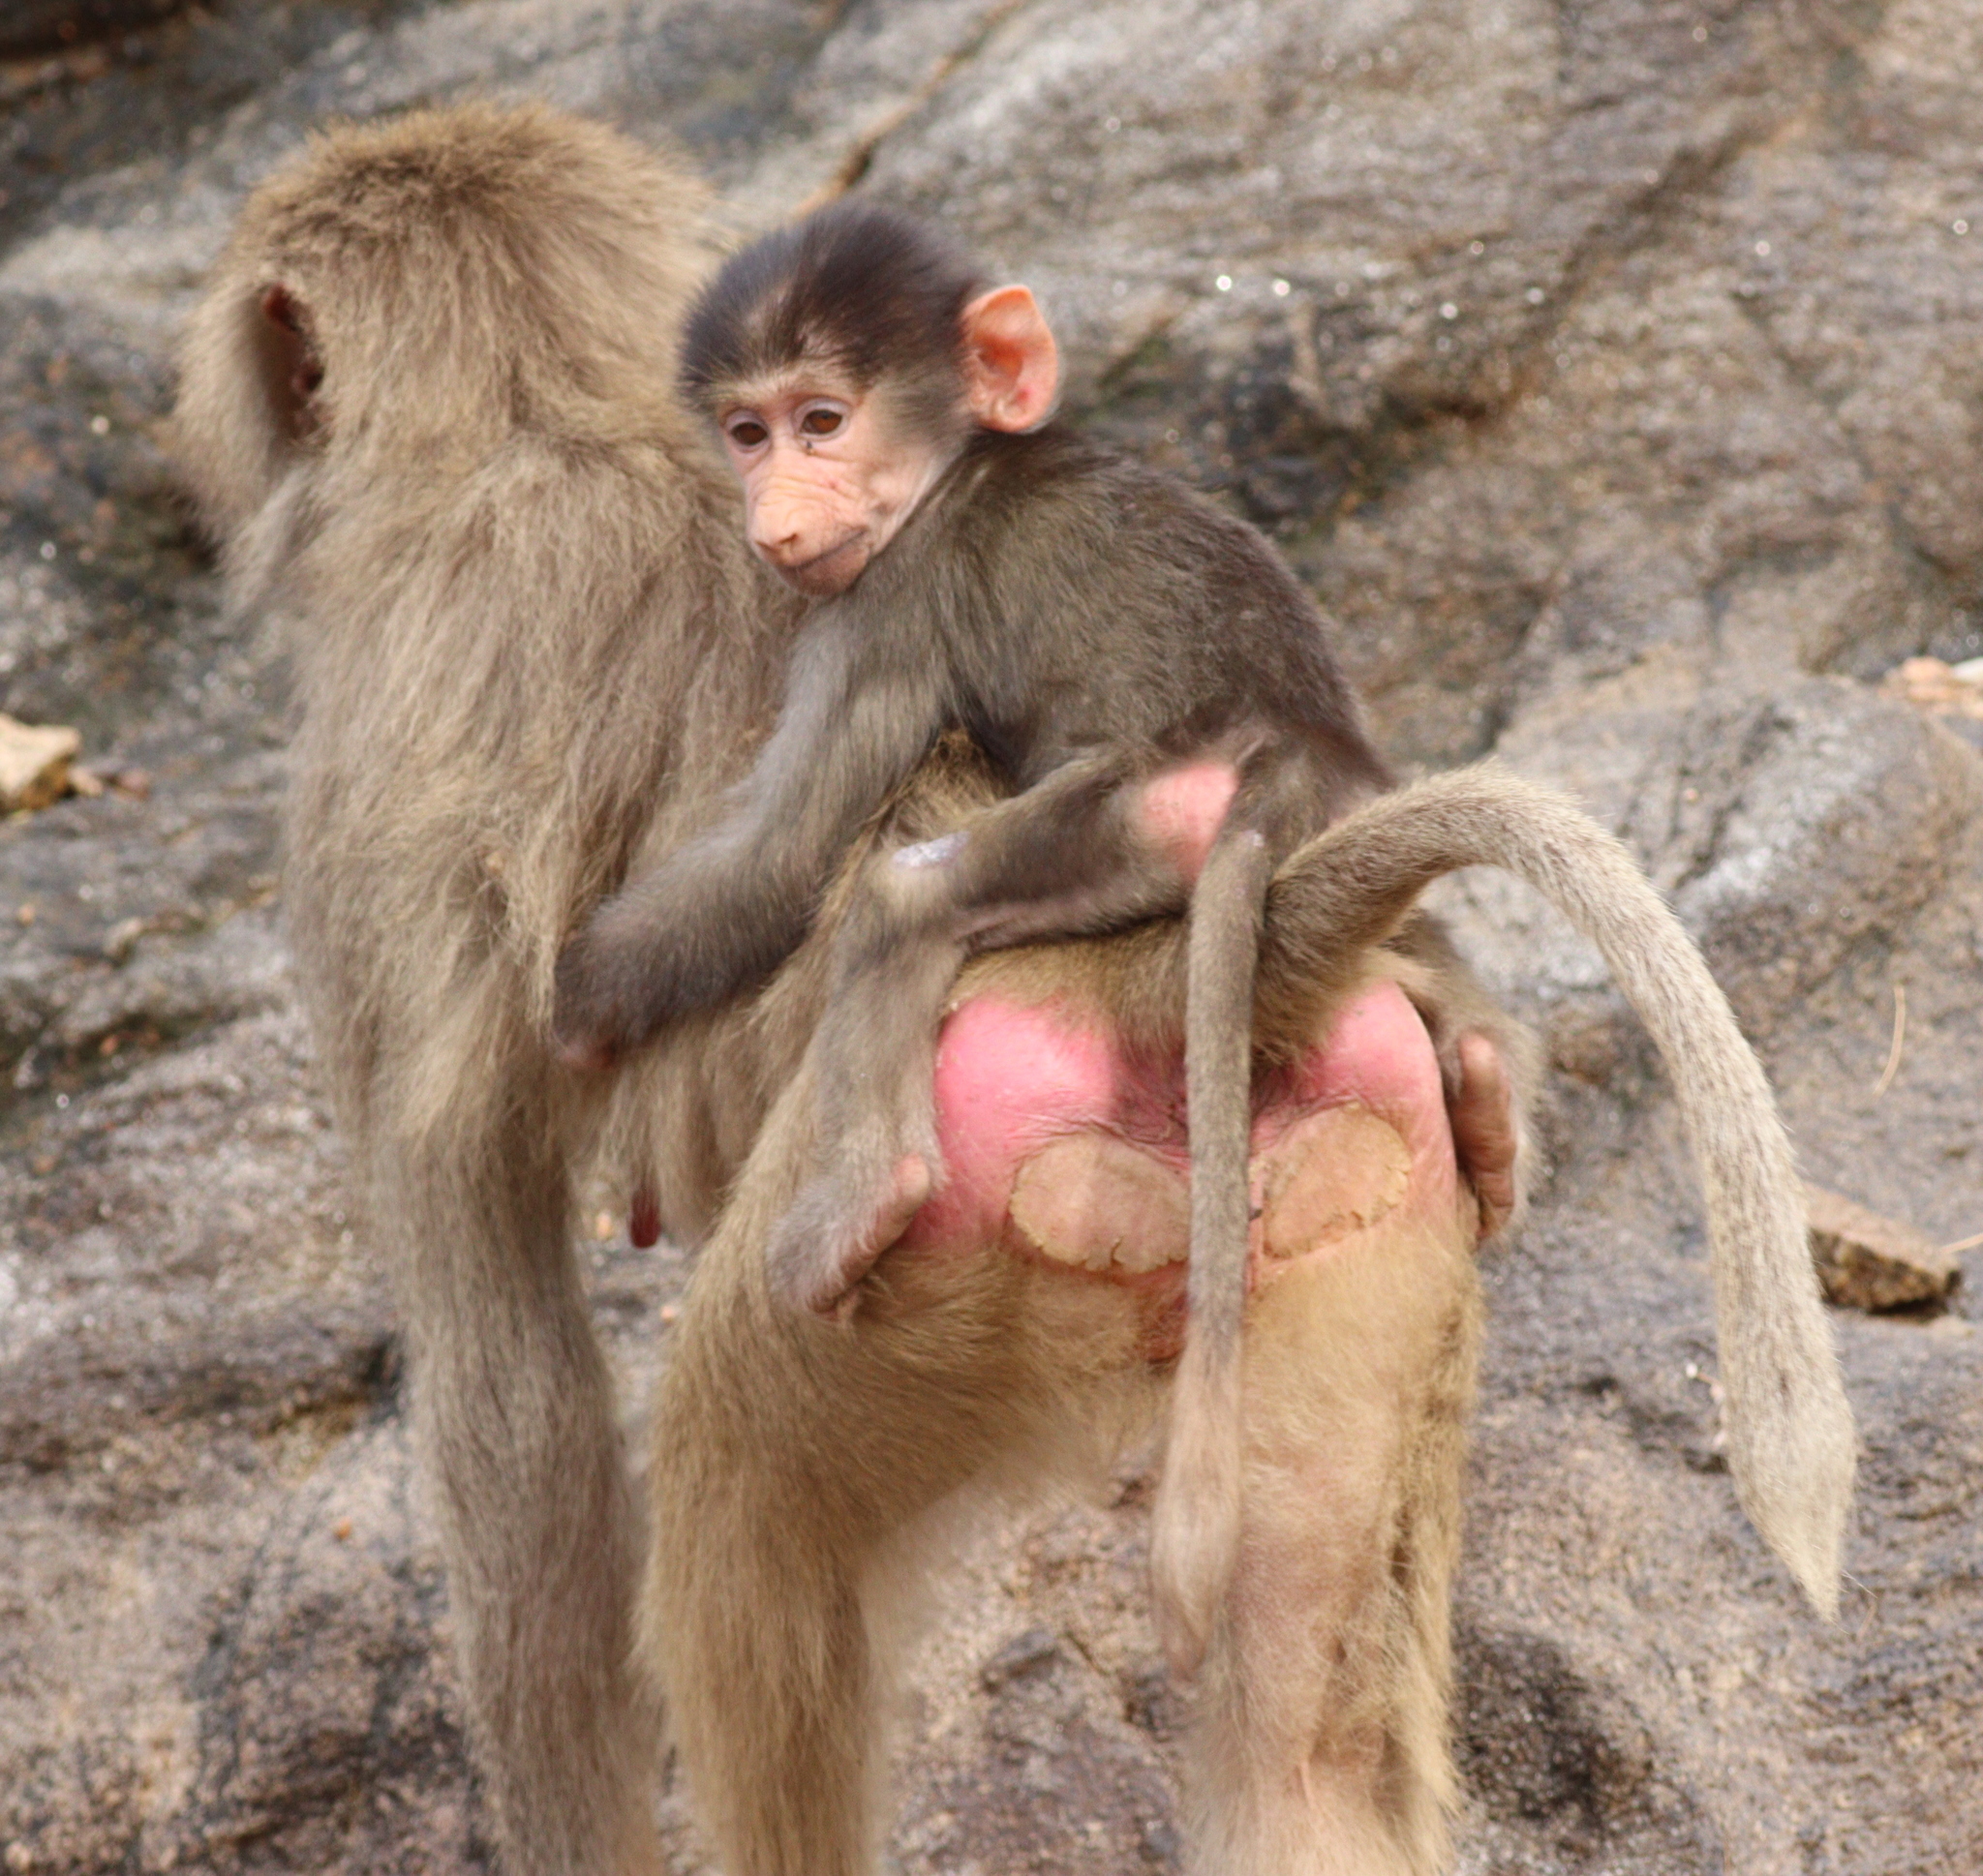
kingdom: Animalia
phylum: Chordata
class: Mammalia
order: Primates
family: Cercopithecidae
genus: Papio
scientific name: Papio hamadryas
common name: Hamadryas baboon
